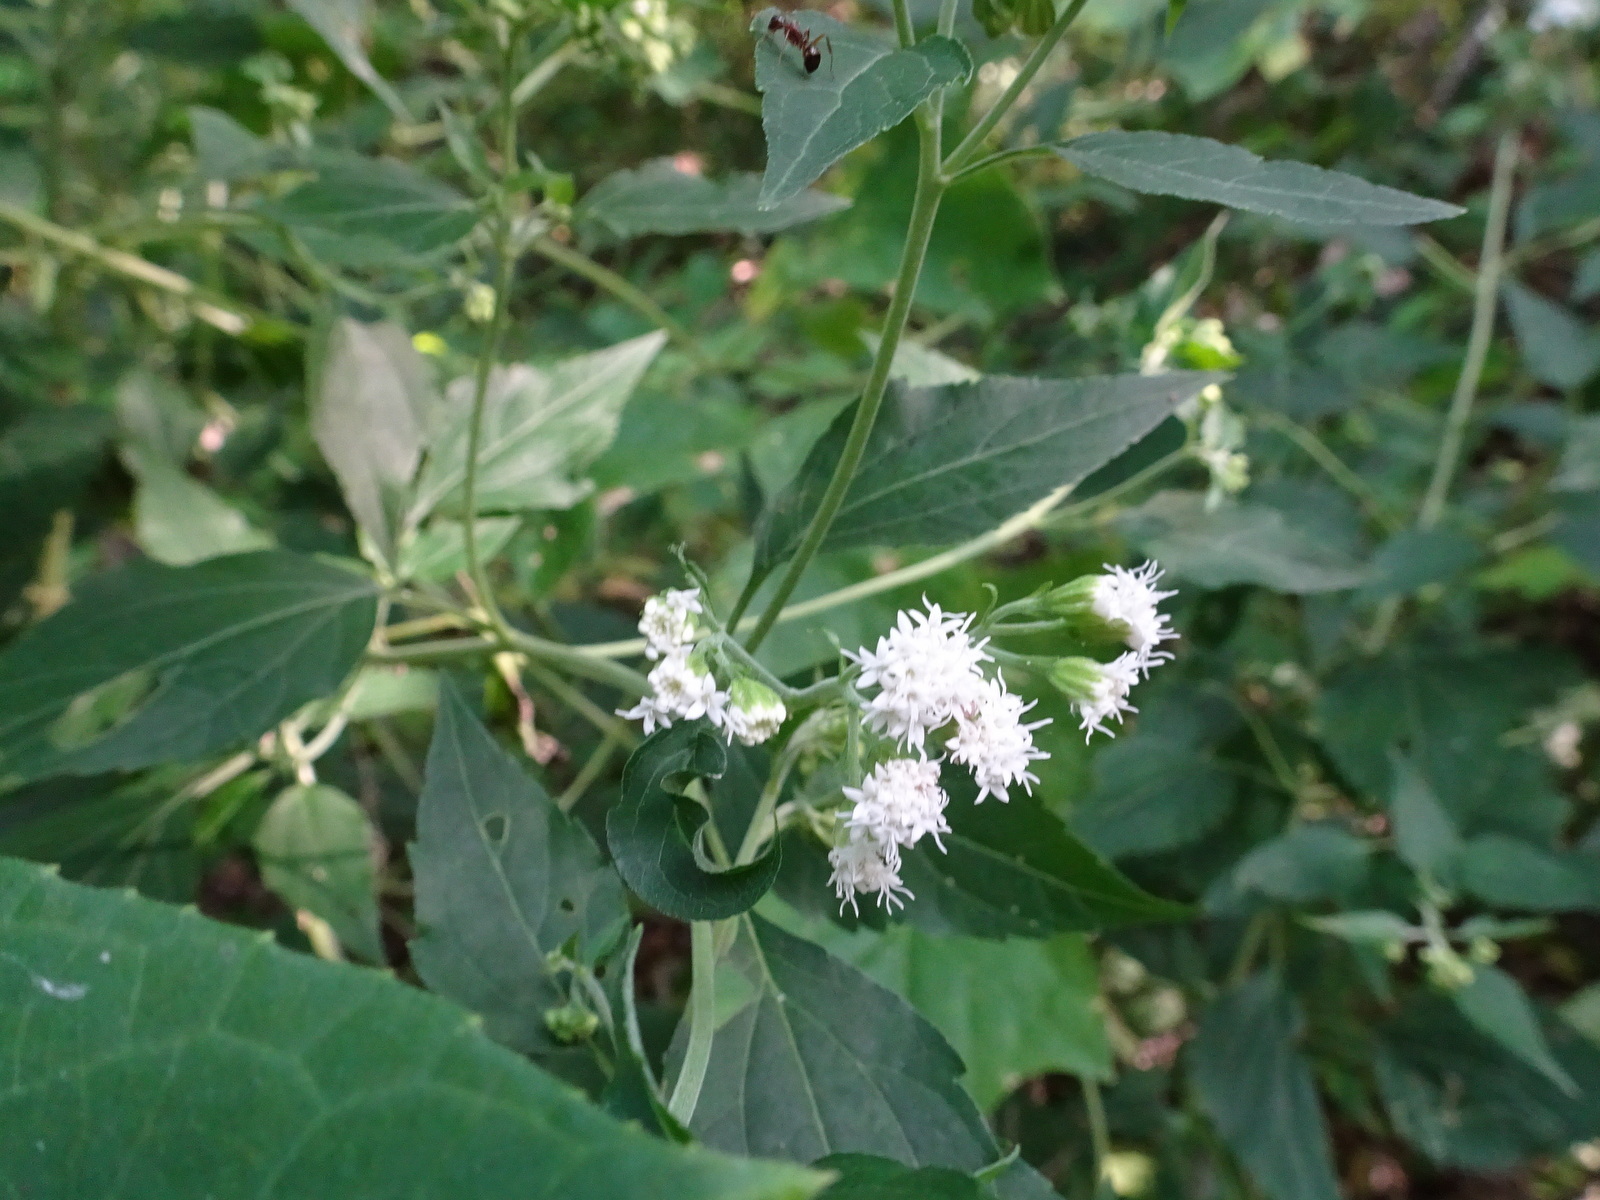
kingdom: Plantae
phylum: Tracheophyta
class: Magnoliopsida
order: Asterales
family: Asteraceae
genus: Ageratina
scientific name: Ageratina altissima
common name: White snakeroot
